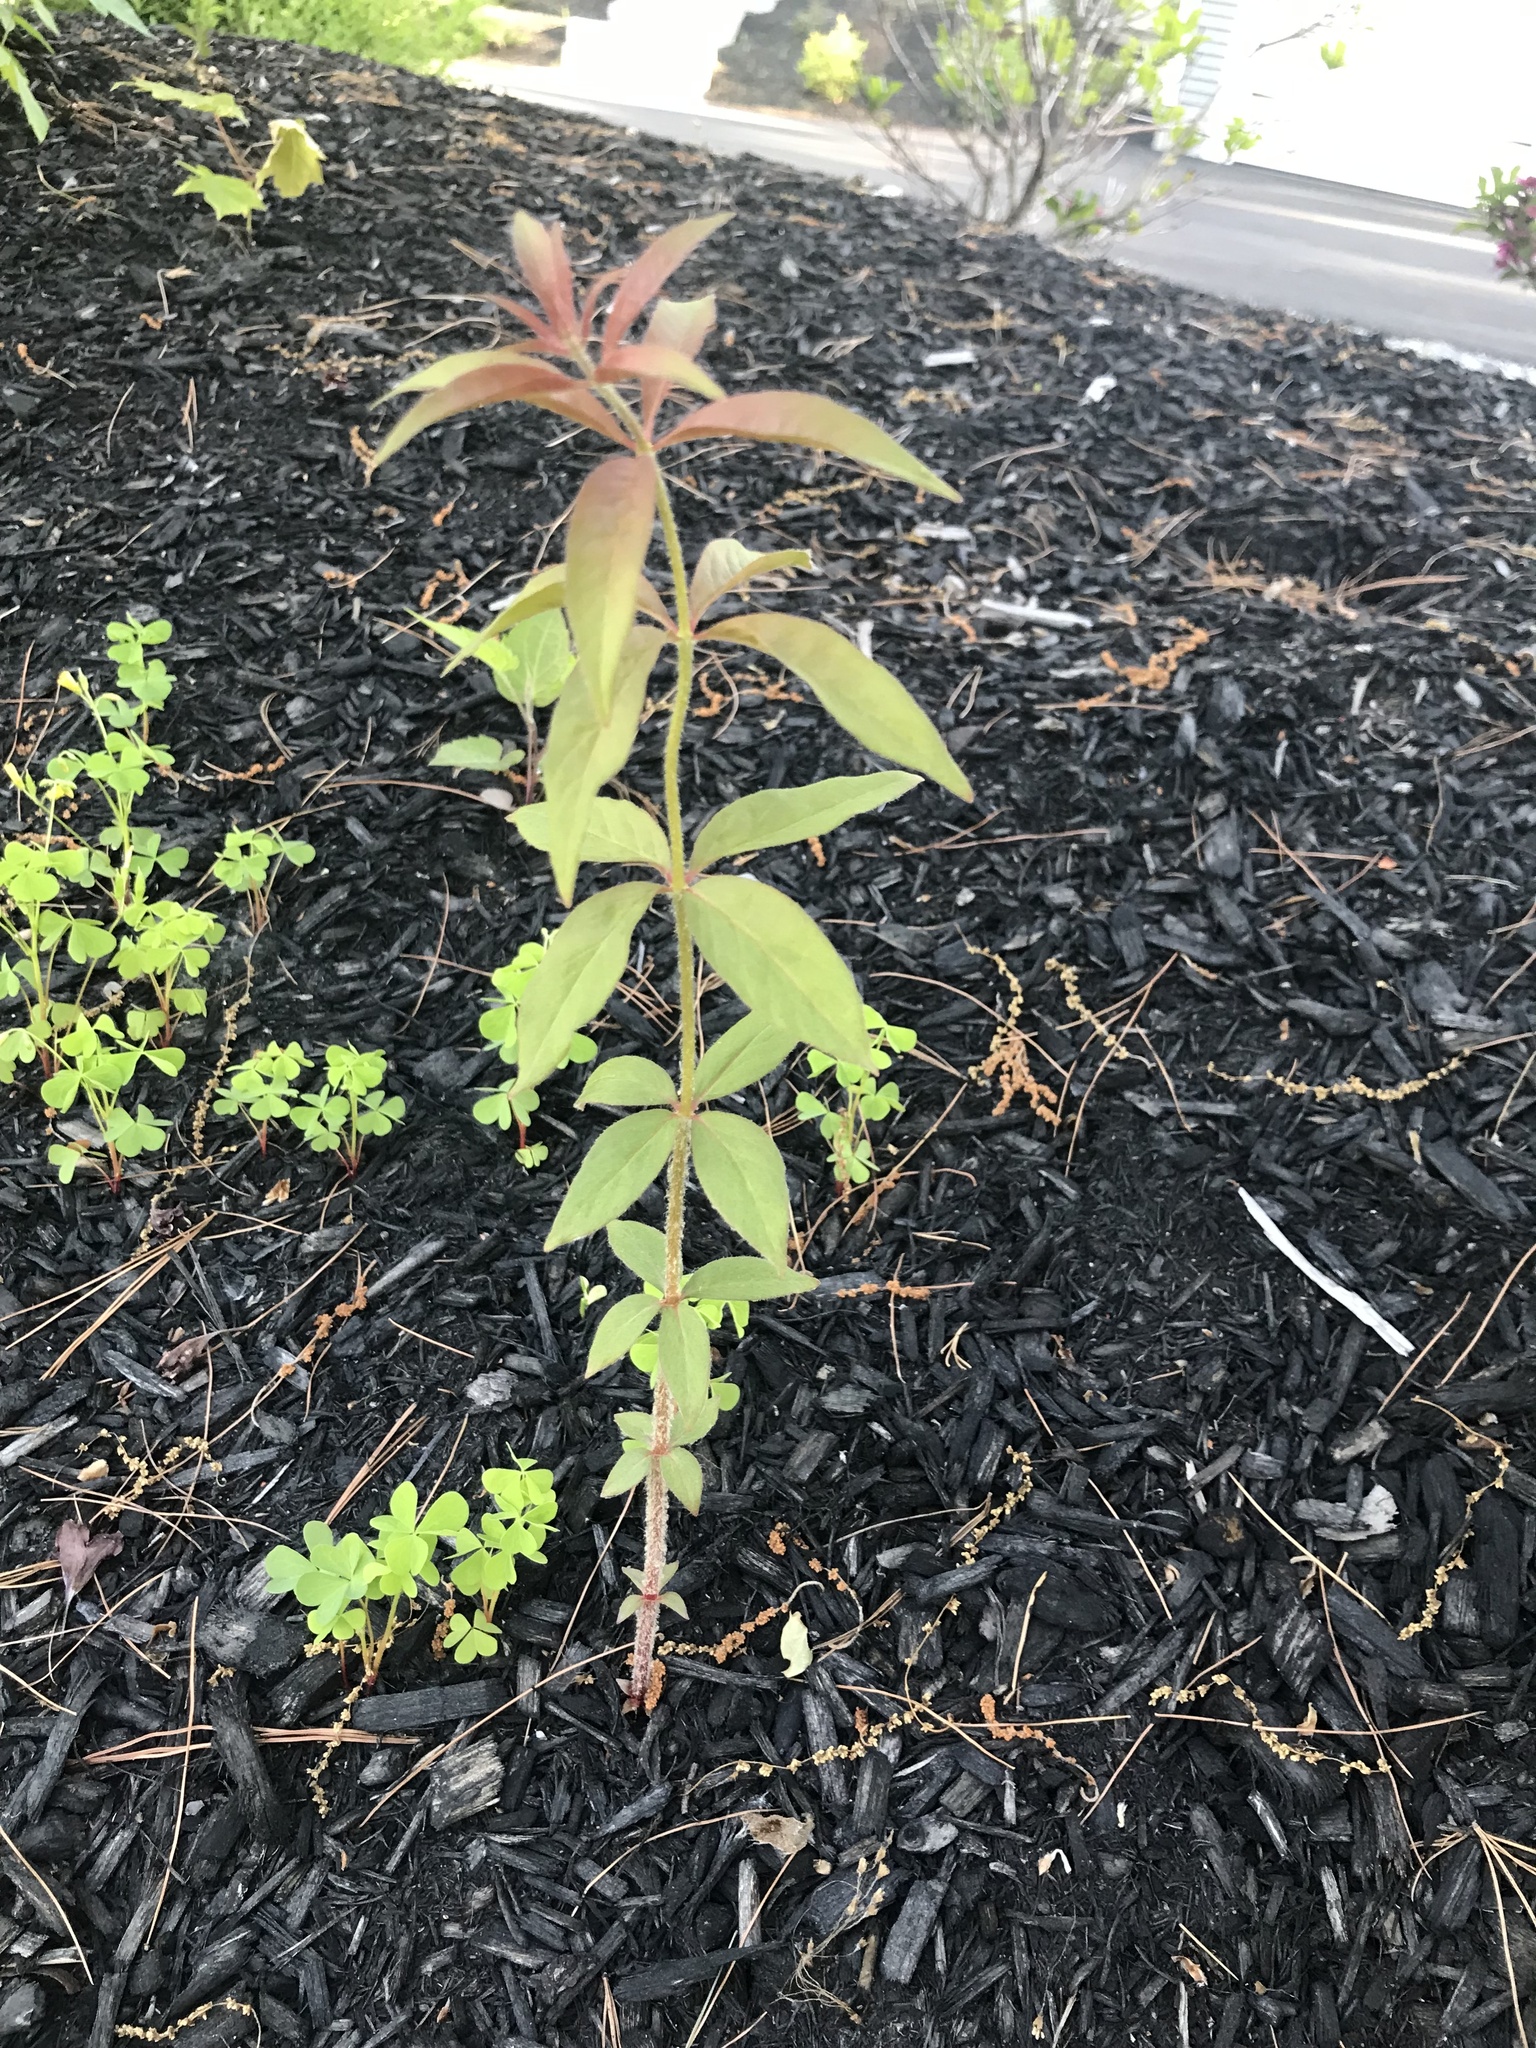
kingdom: Plantae
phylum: Tracheophyta
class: Magnoliopsida
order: Ericales
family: Primulaceae
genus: Lysimachia
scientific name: Lysimachia quadrifolia
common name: Whorled loosestrife
